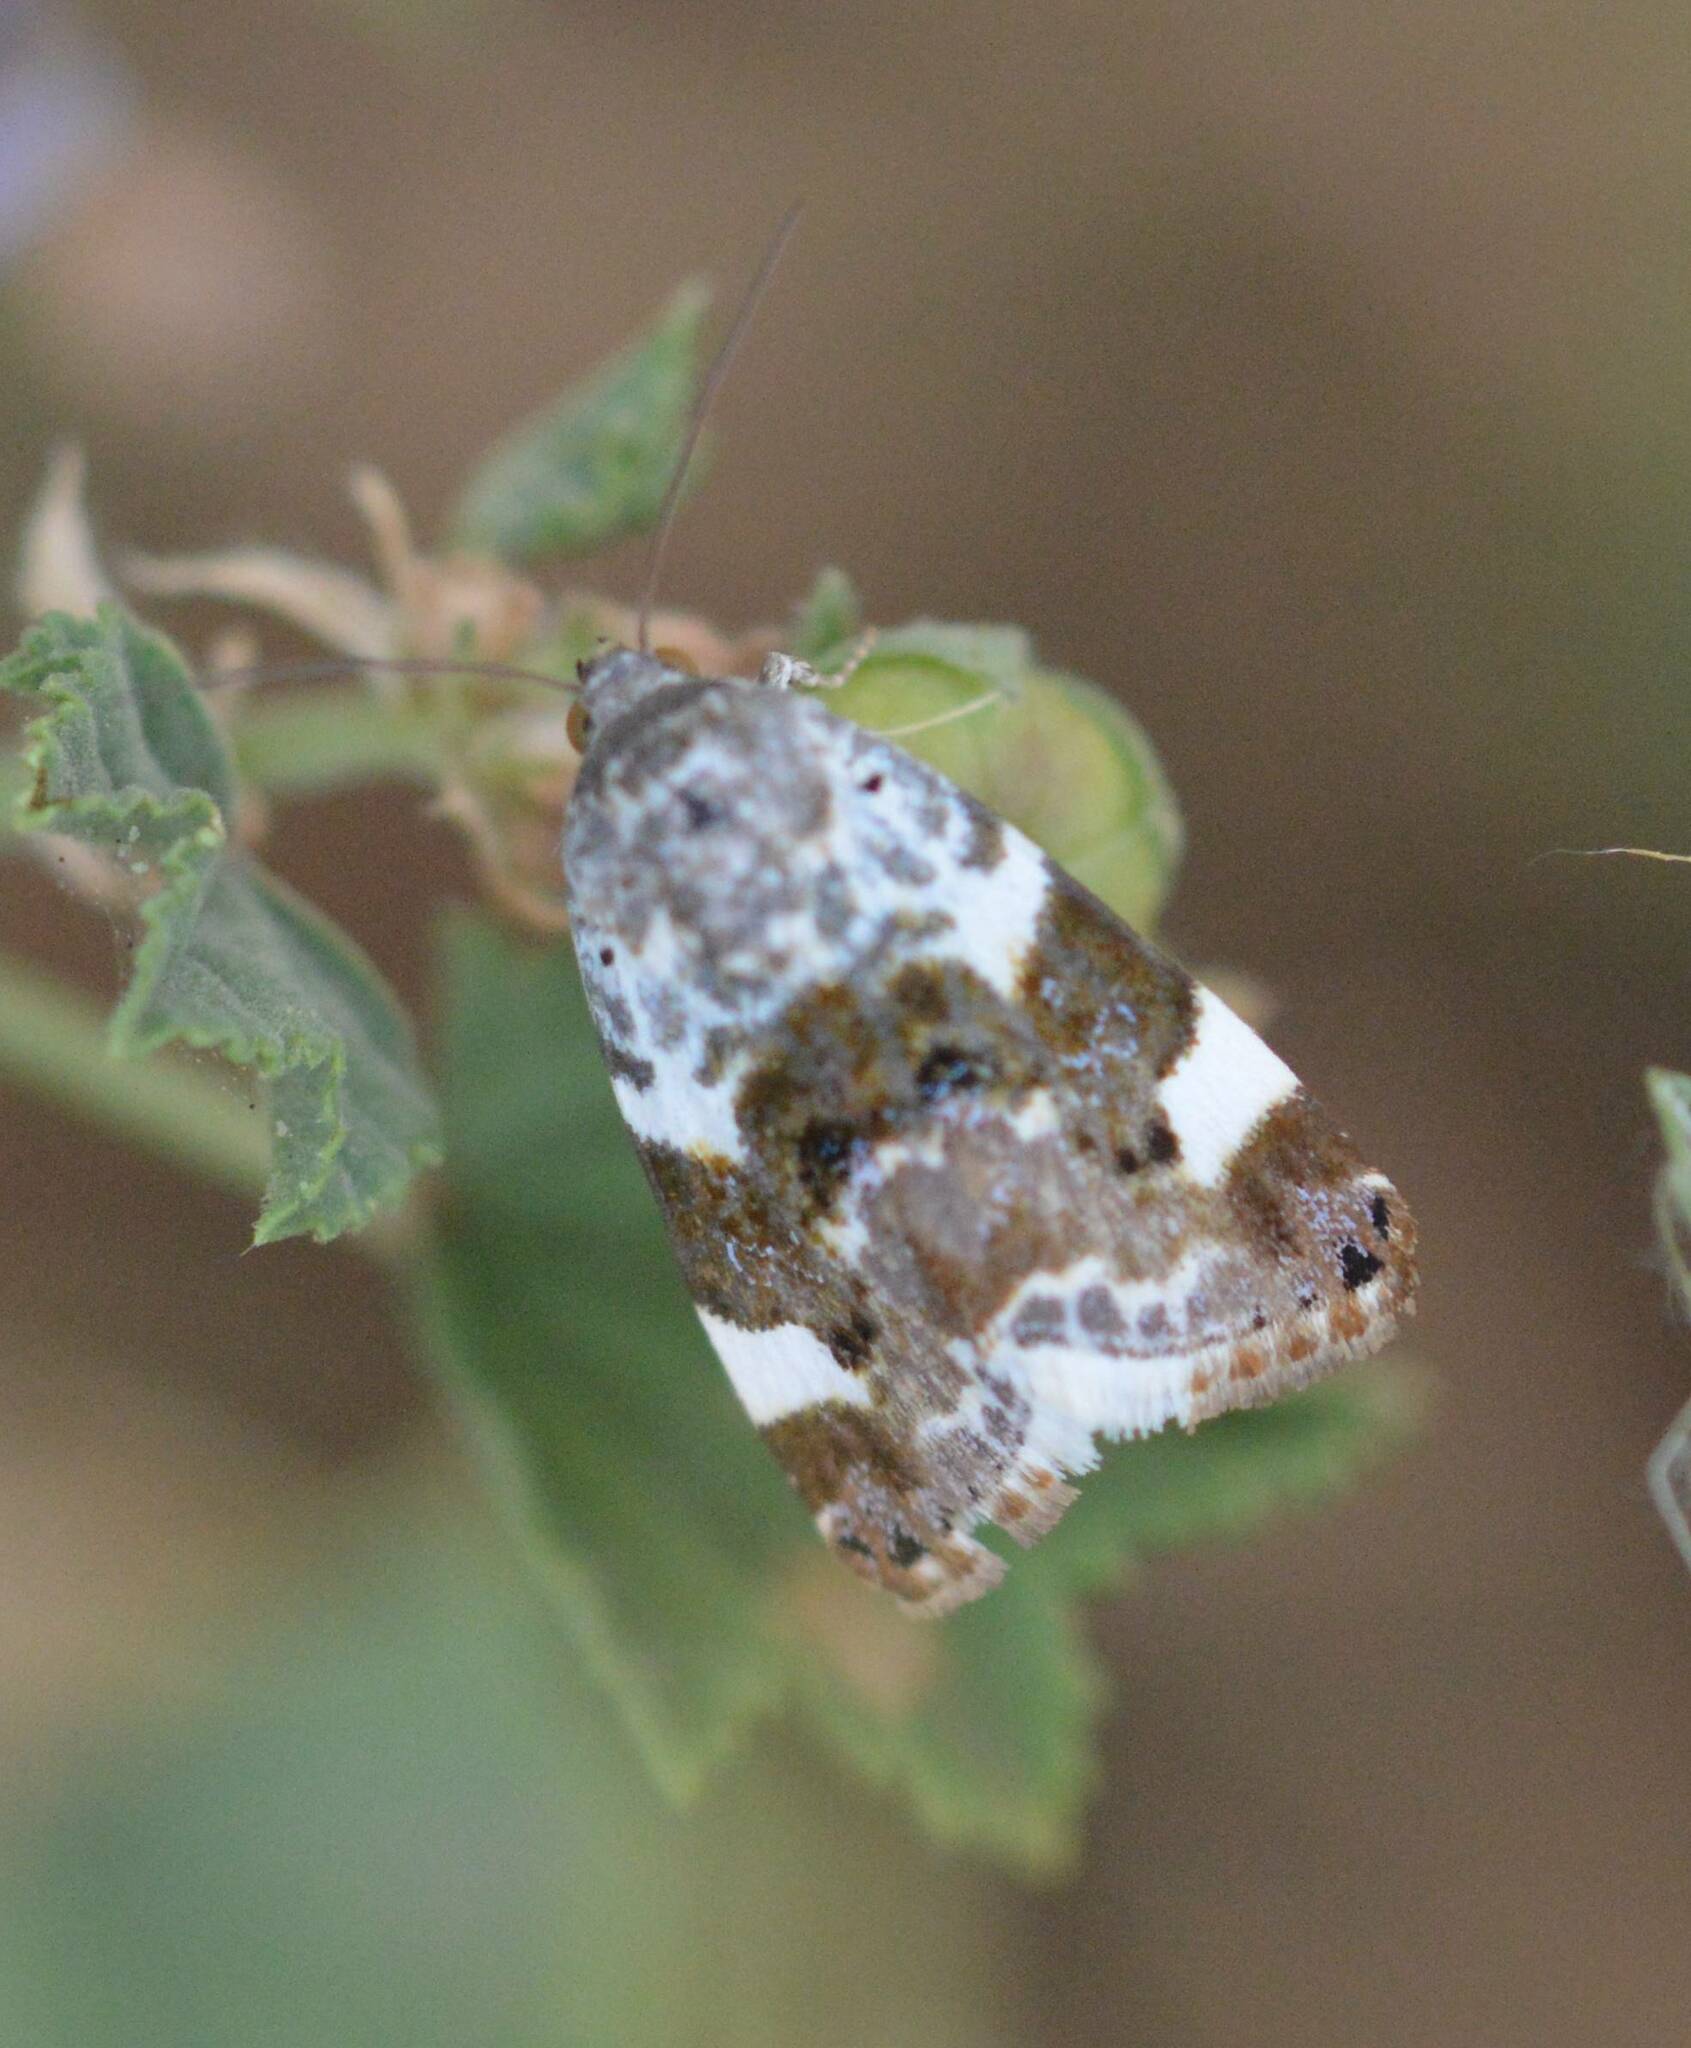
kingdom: Animalia
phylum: Arthropoda
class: Insecta
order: Lepidoptera
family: Noctuidae
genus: Acontia
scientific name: Acontia lucida
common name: Pale shoulder
